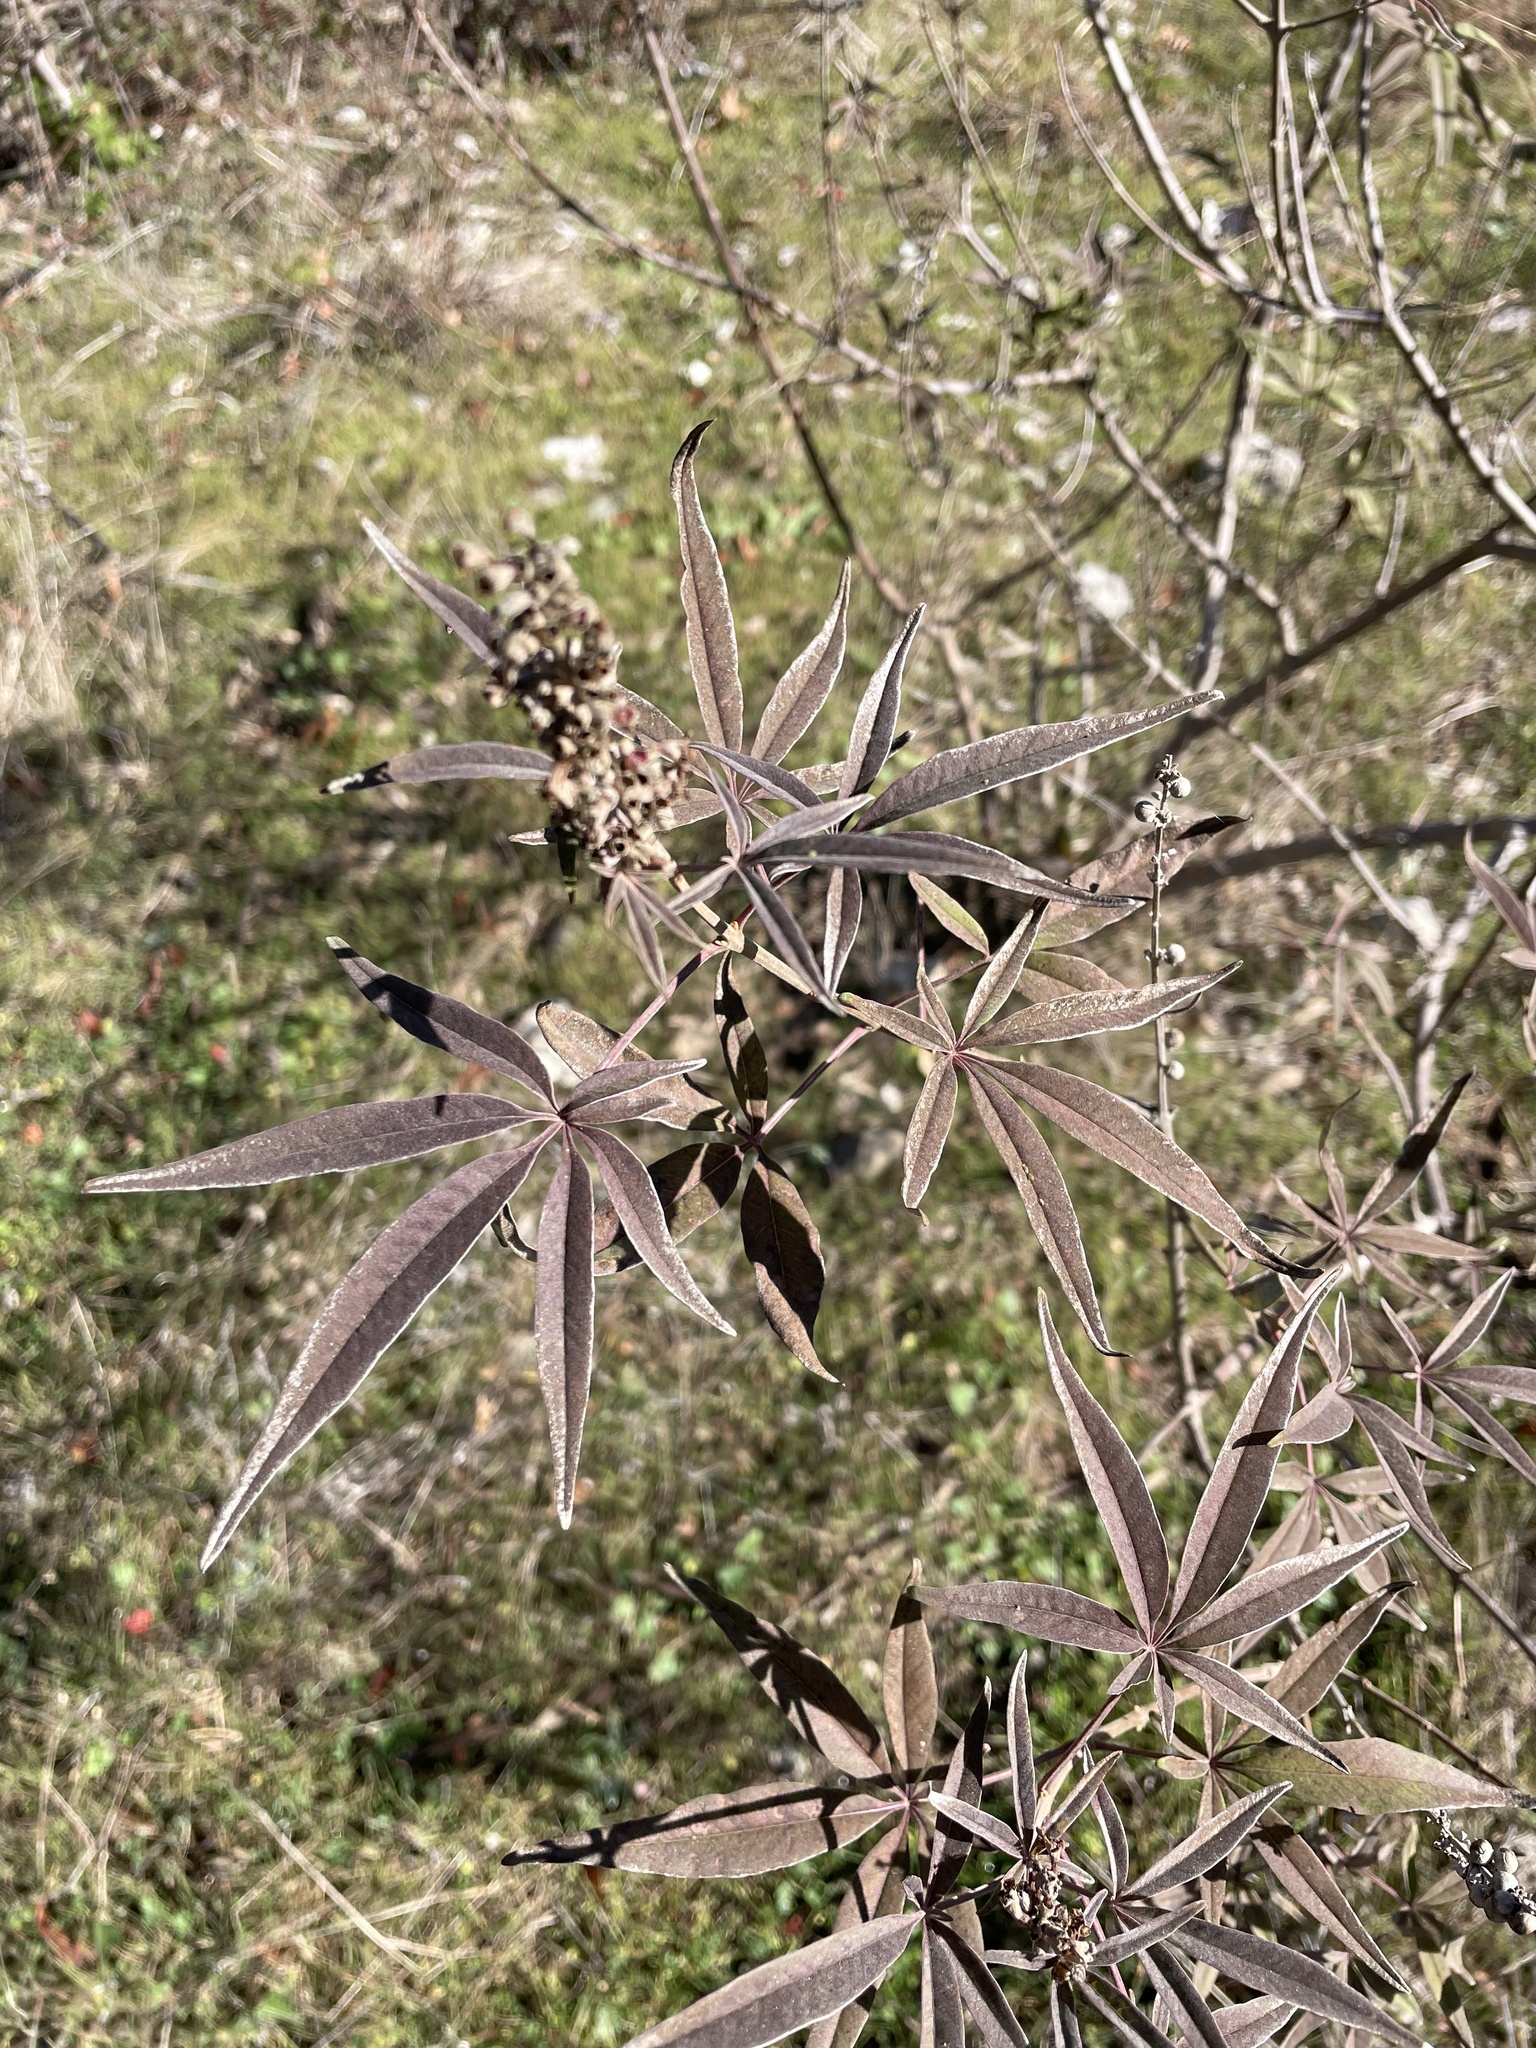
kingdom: Plantae
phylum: Tracheophyta
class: Magnoliopsida
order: Lamiales
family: Lamiaceae
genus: Vitex
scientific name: Vitex agnus-castus
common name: Chasteberry
